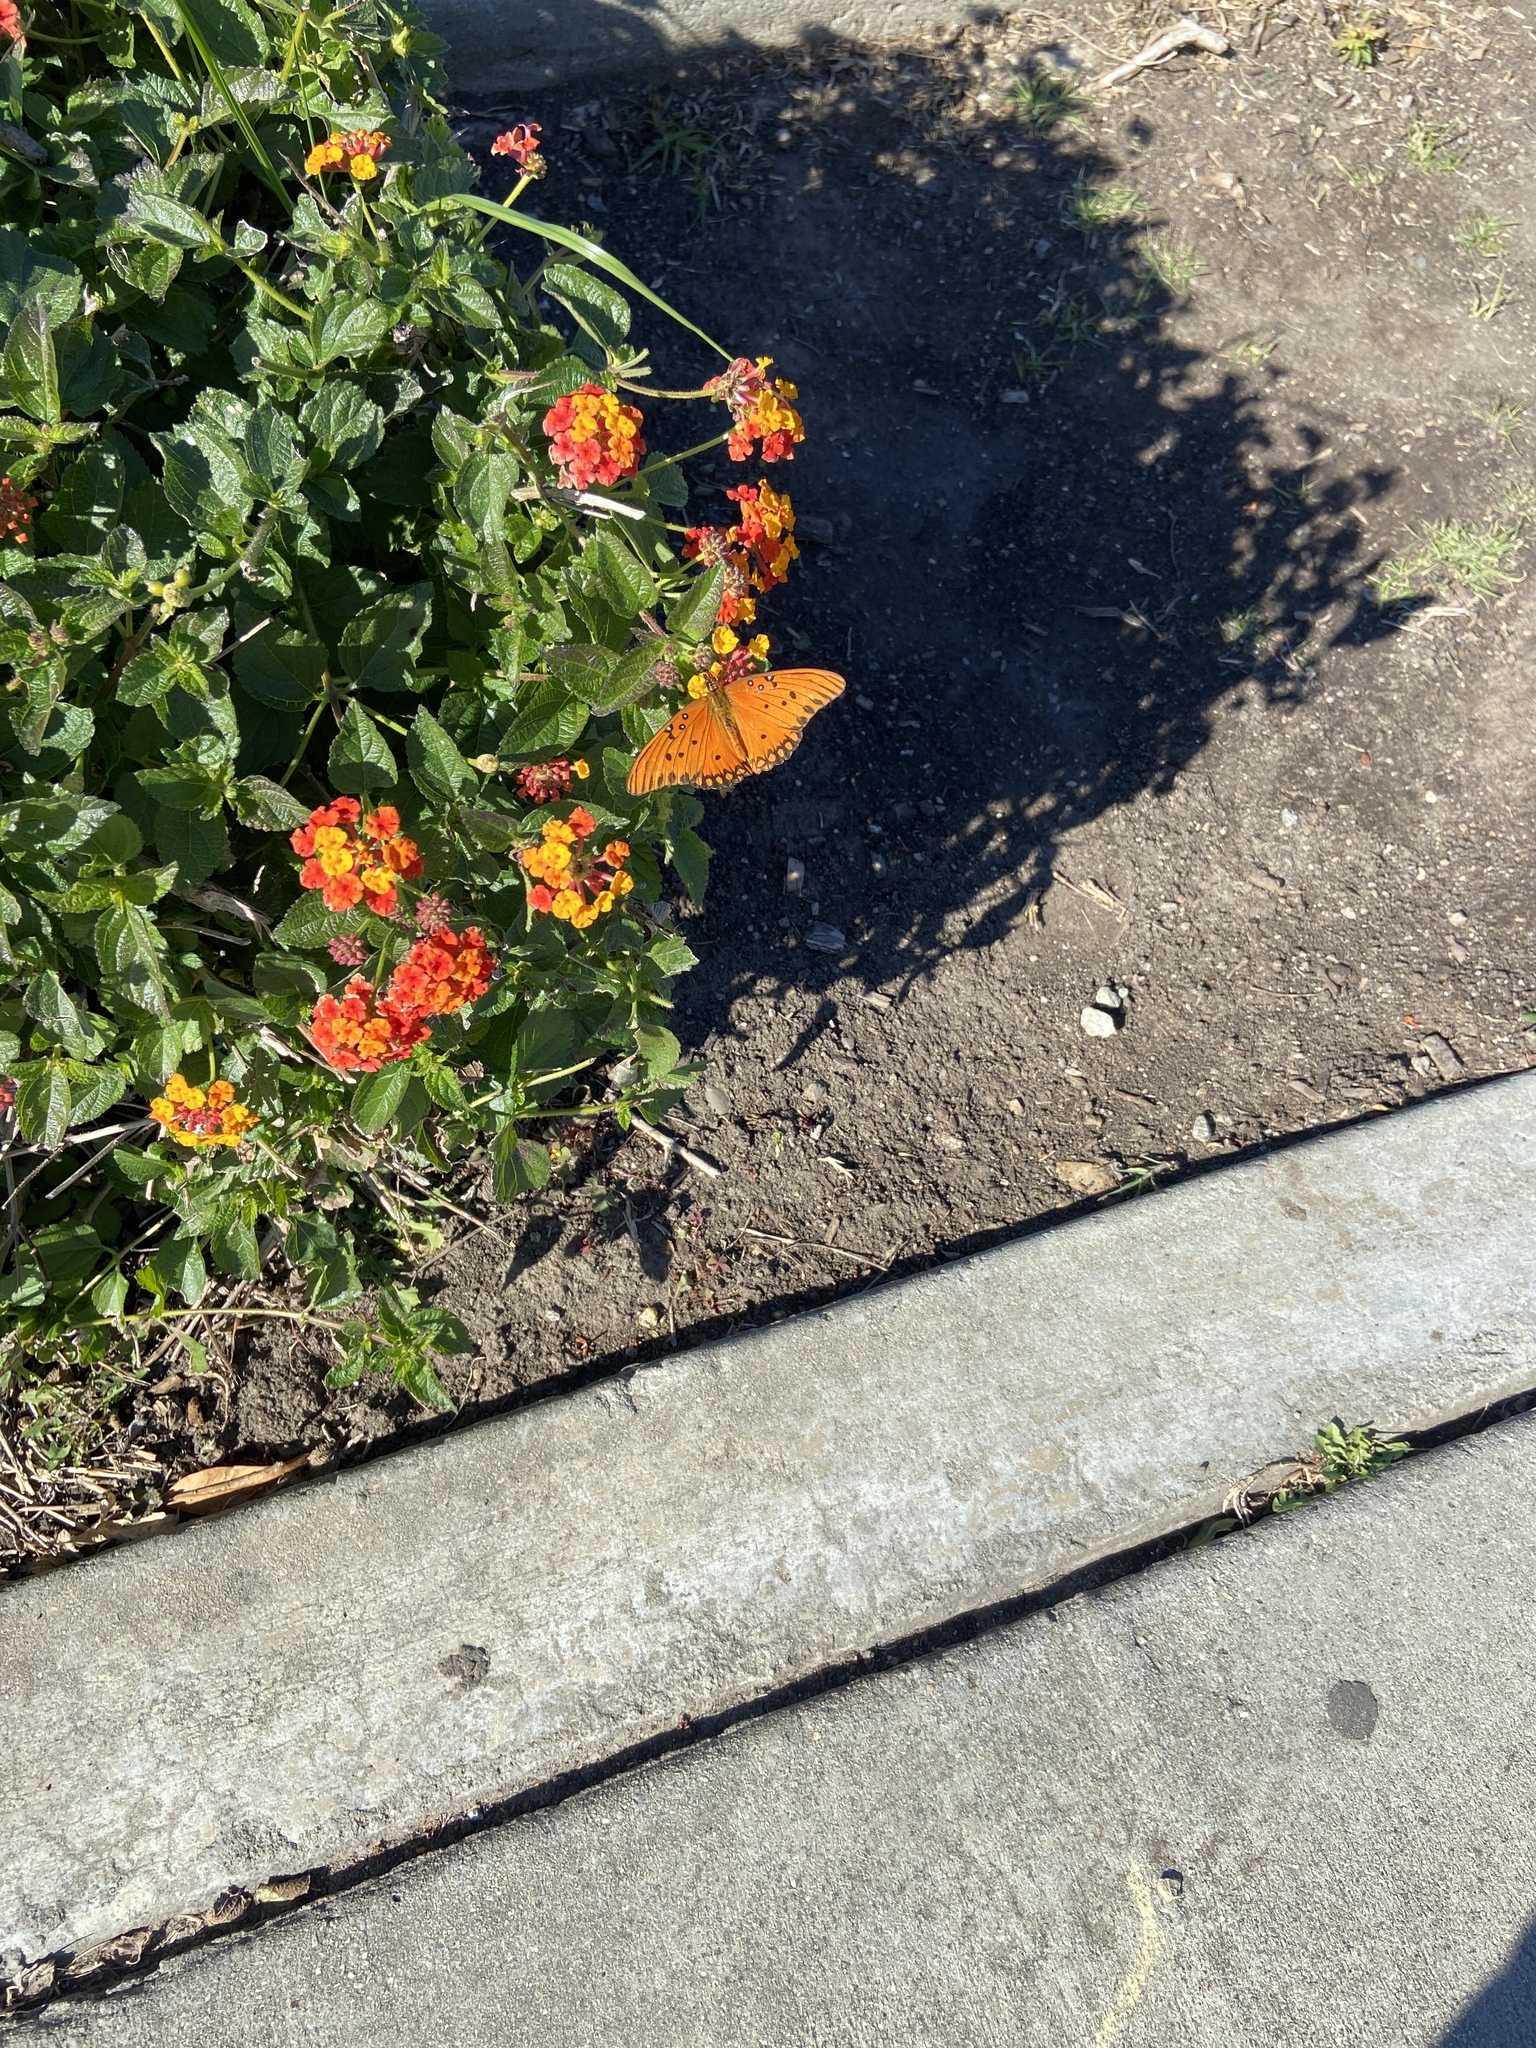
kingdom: Animalia
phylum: Arthropoda
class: Insecta
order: Lepidoptera
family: Nymphalidae
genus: Dione
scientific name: Dione vanillae
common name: Gulf fritillary
